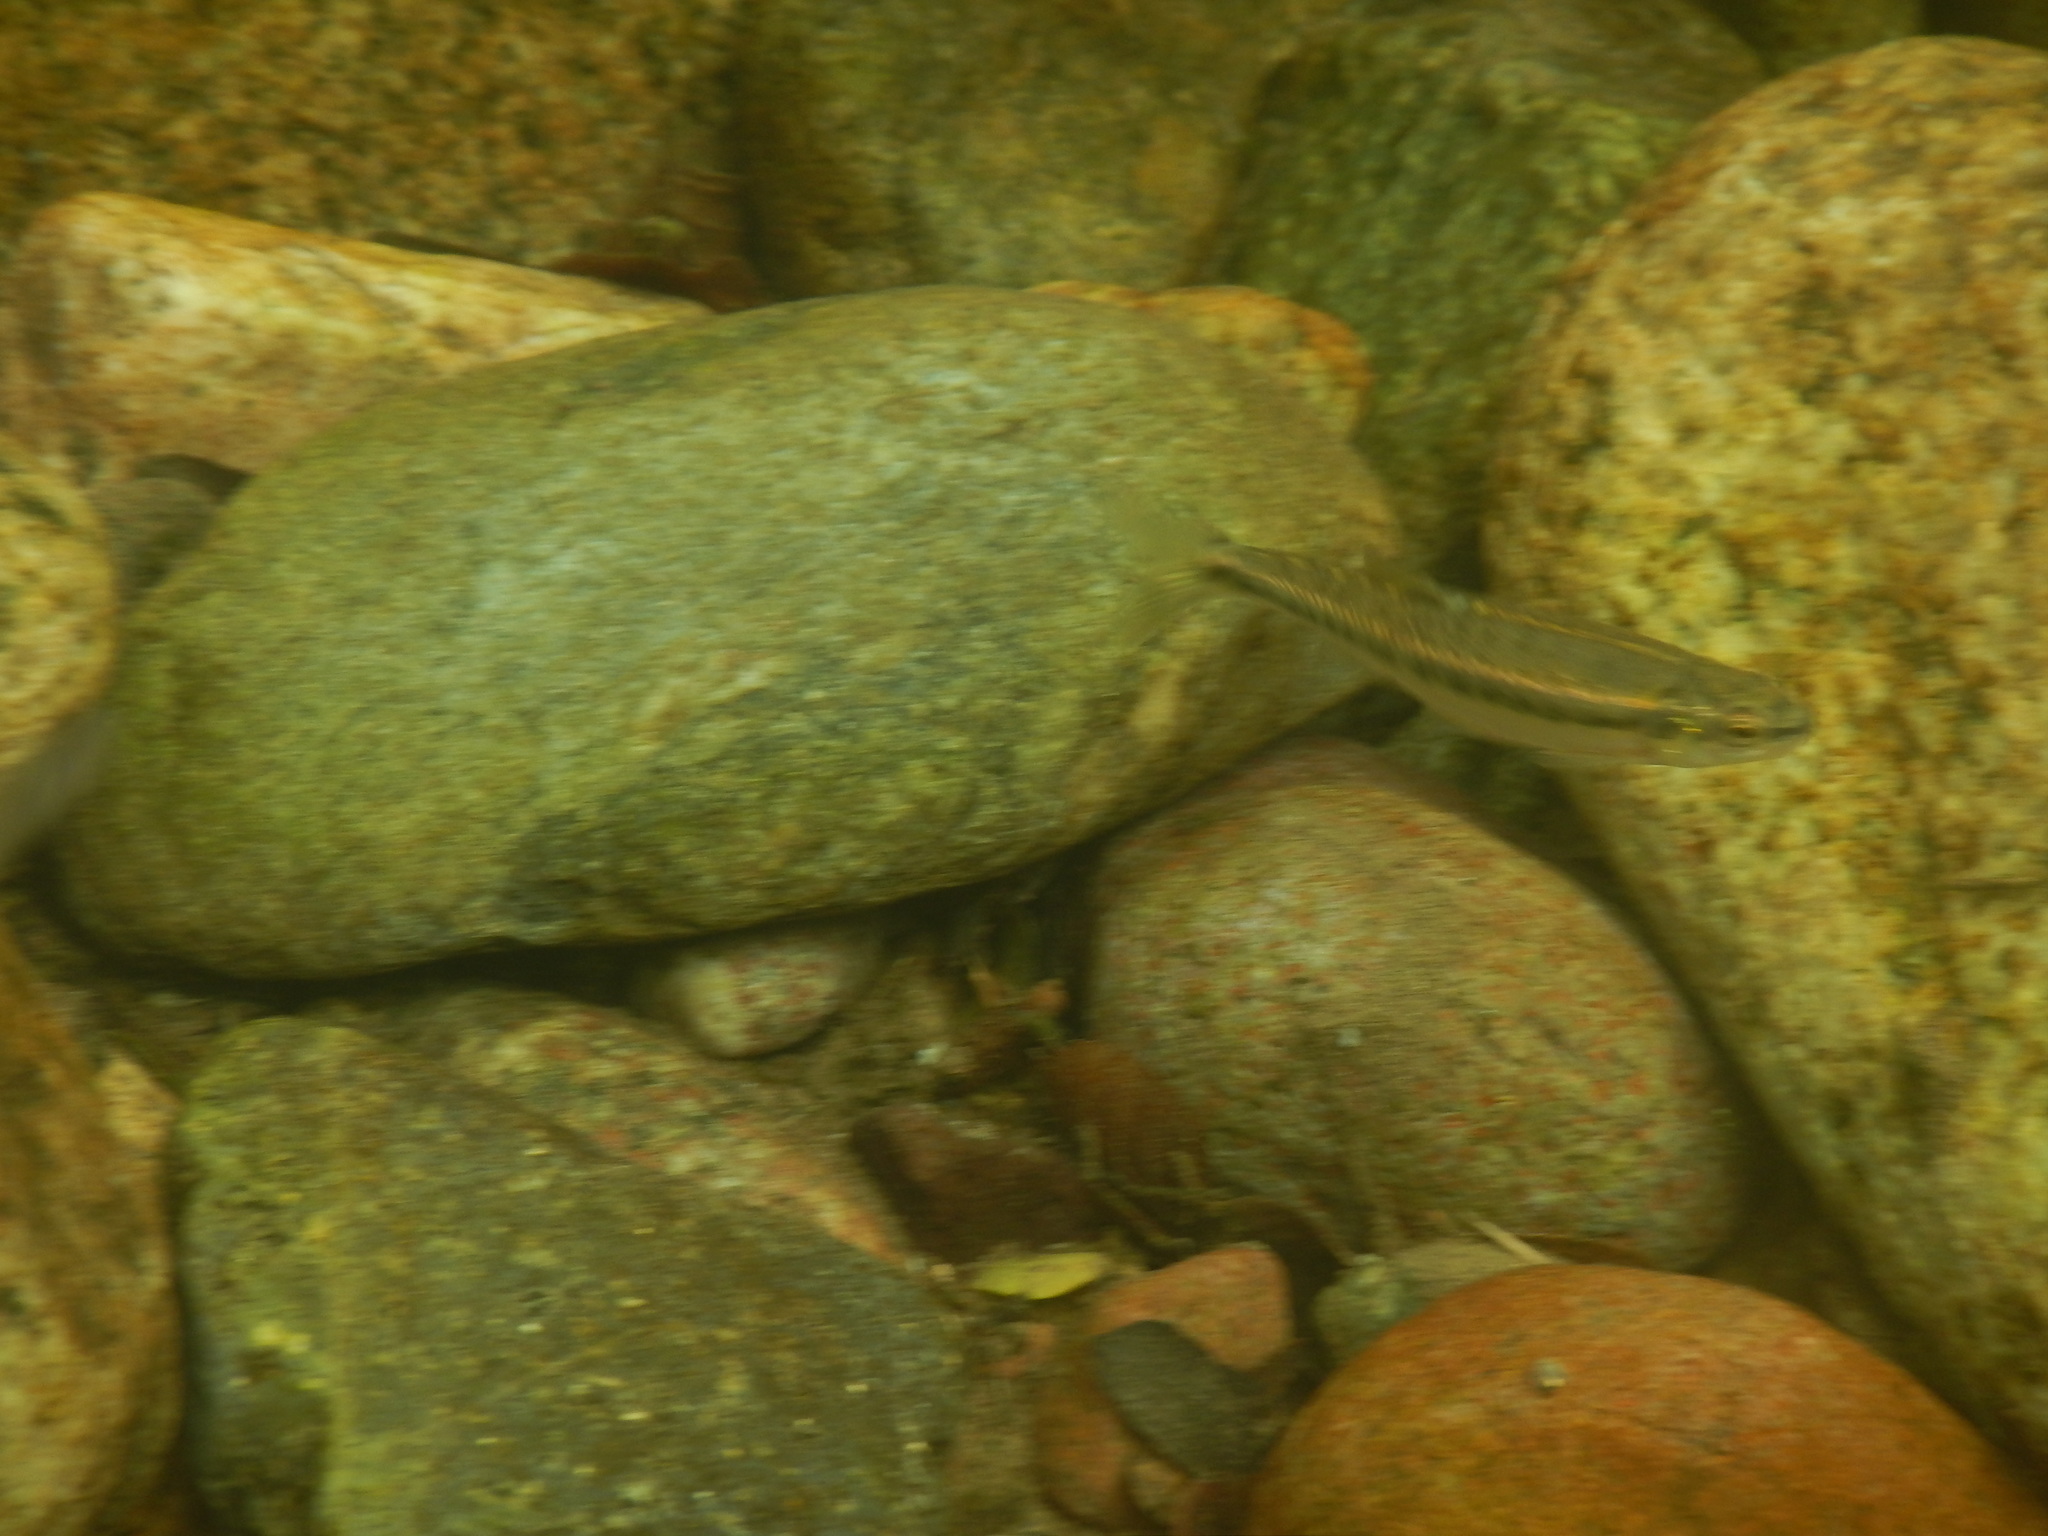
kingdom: Animalia
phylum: Chordata
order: Cypriniformes
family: Cyprinidae
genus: Phoxinus
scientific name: Phoxinus dragarum
